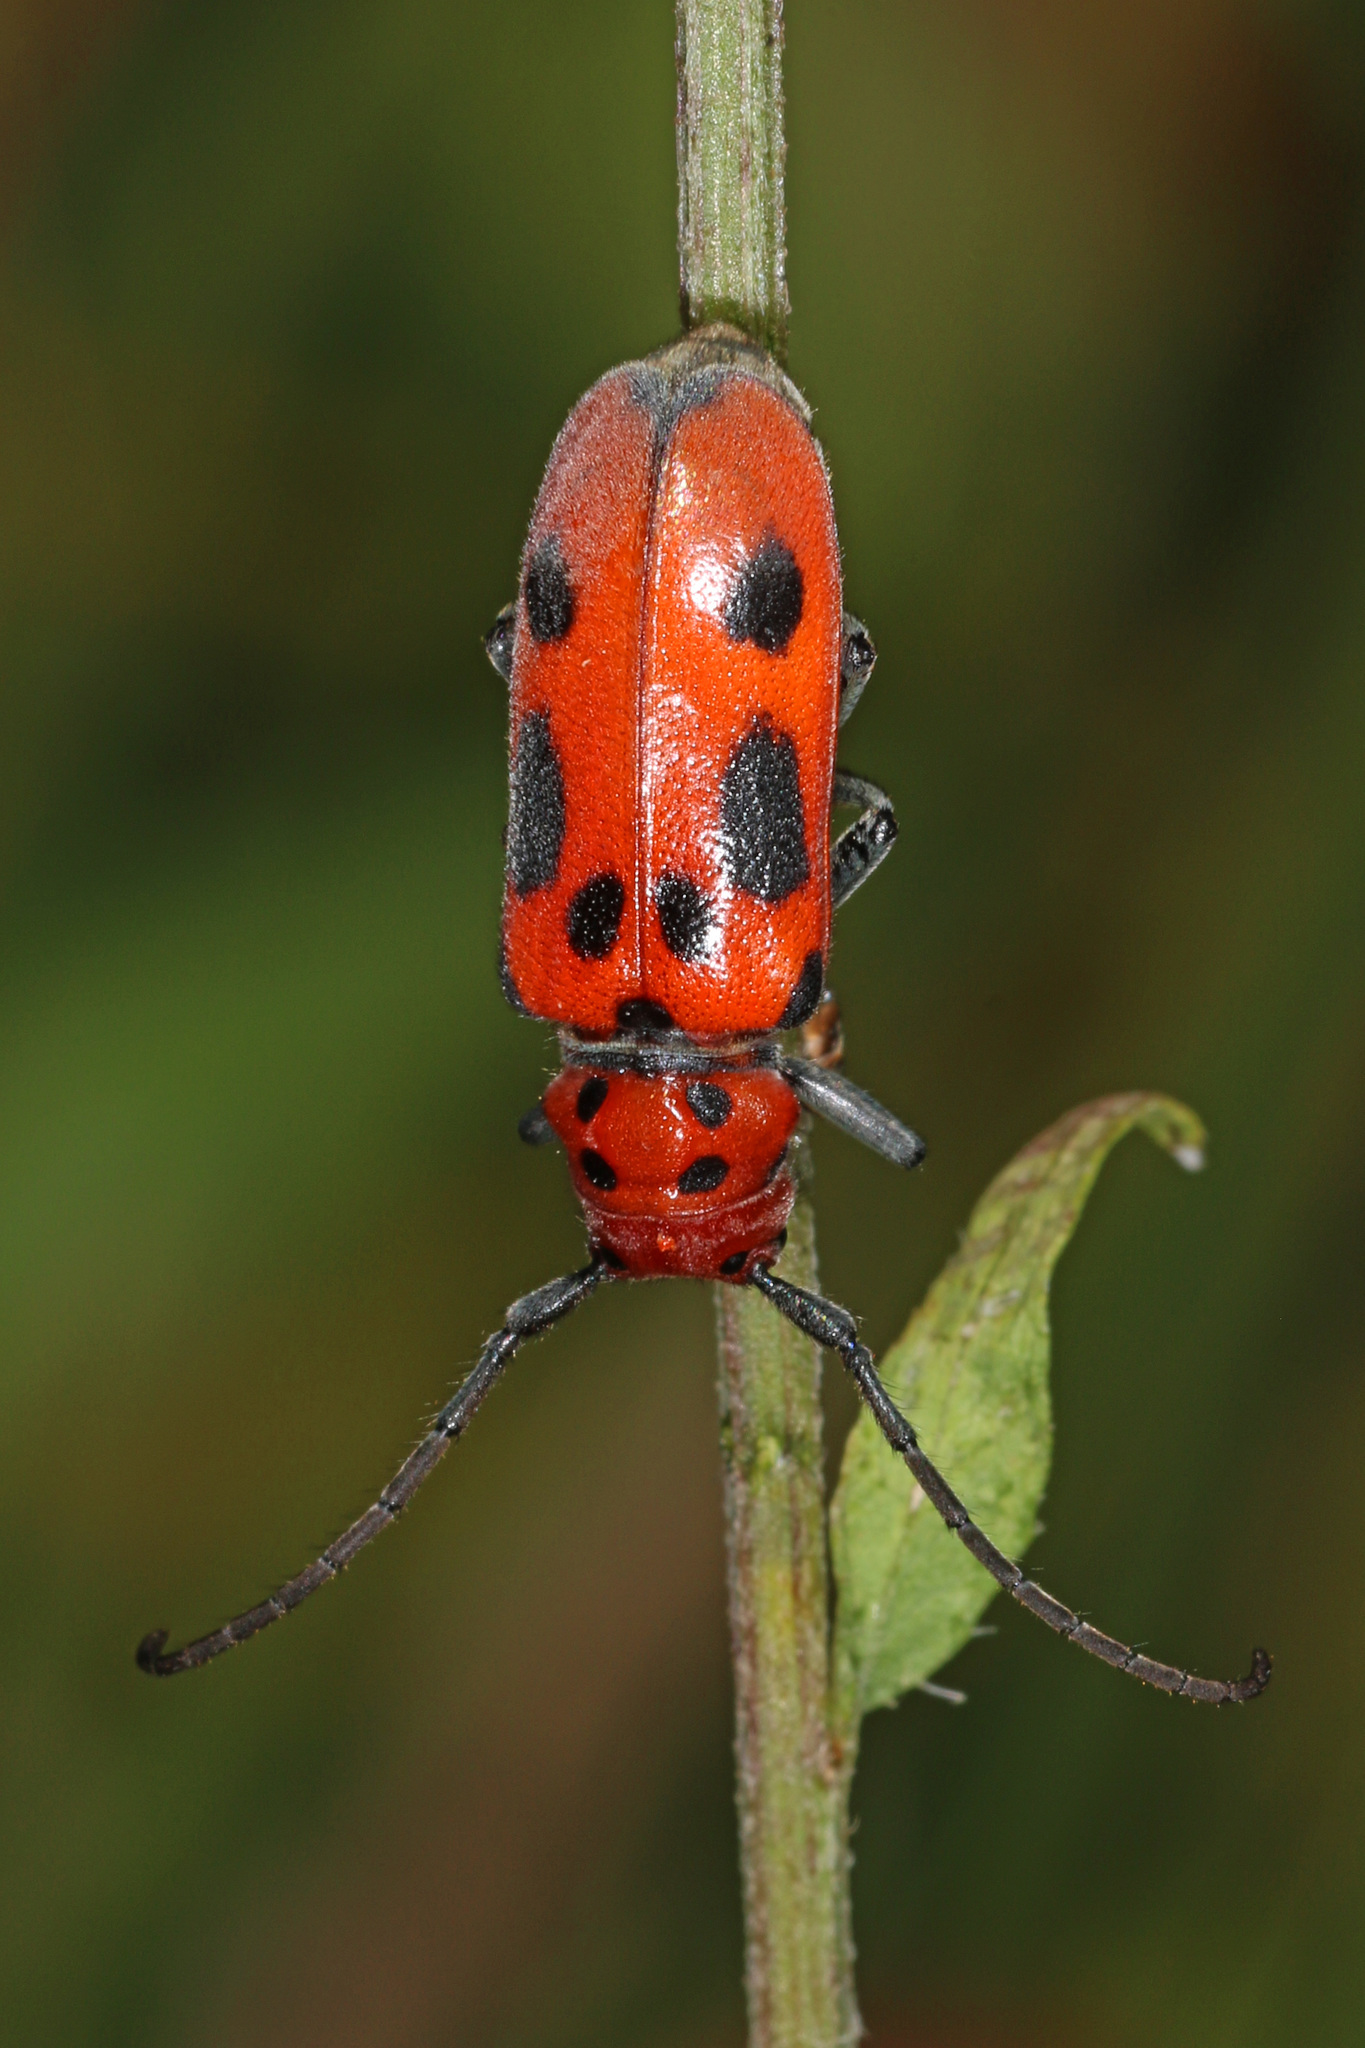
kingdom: Animalia
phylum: Arthropoda
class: Insecta
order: Coleoptera
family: Cerambycidae
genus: Tetraopes
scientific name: Tetraopes tetrophthalmus
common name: Red milkweed beetle
